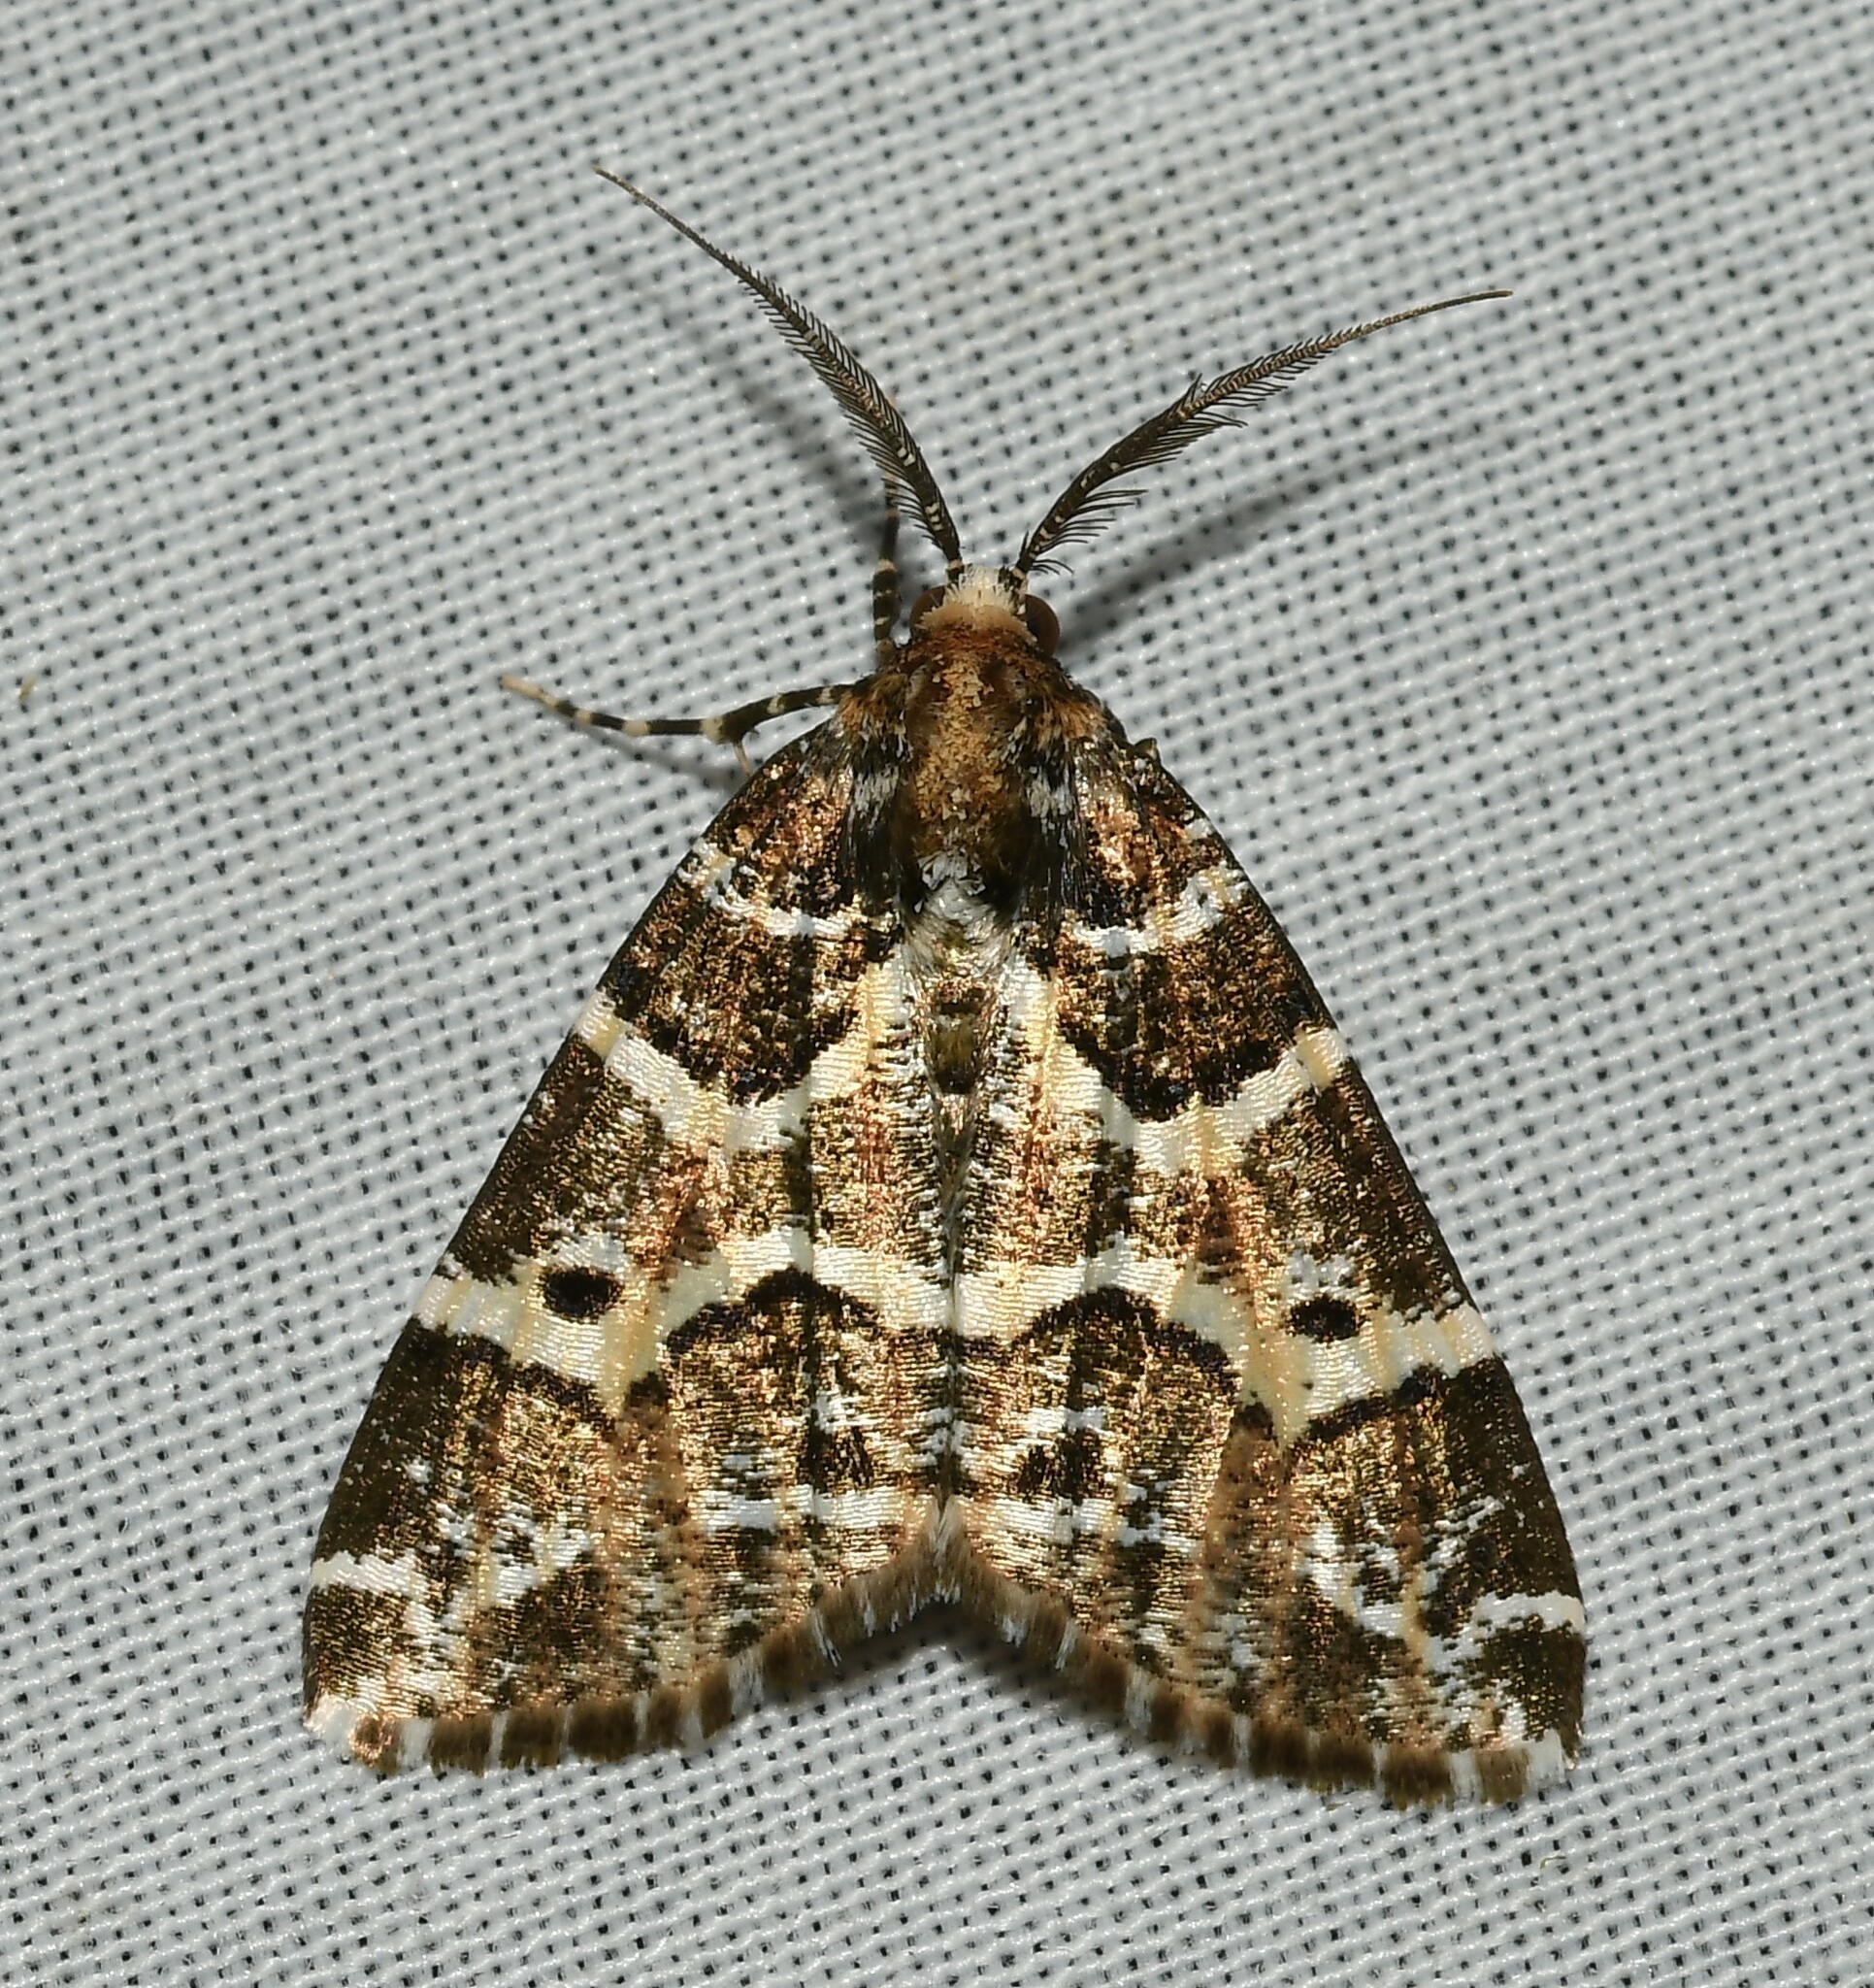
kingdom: Animalia
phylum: Arthropoda
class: Insecta
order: Lepidoptera
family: Geometridae
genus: Cargolia
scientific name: Cargolia
